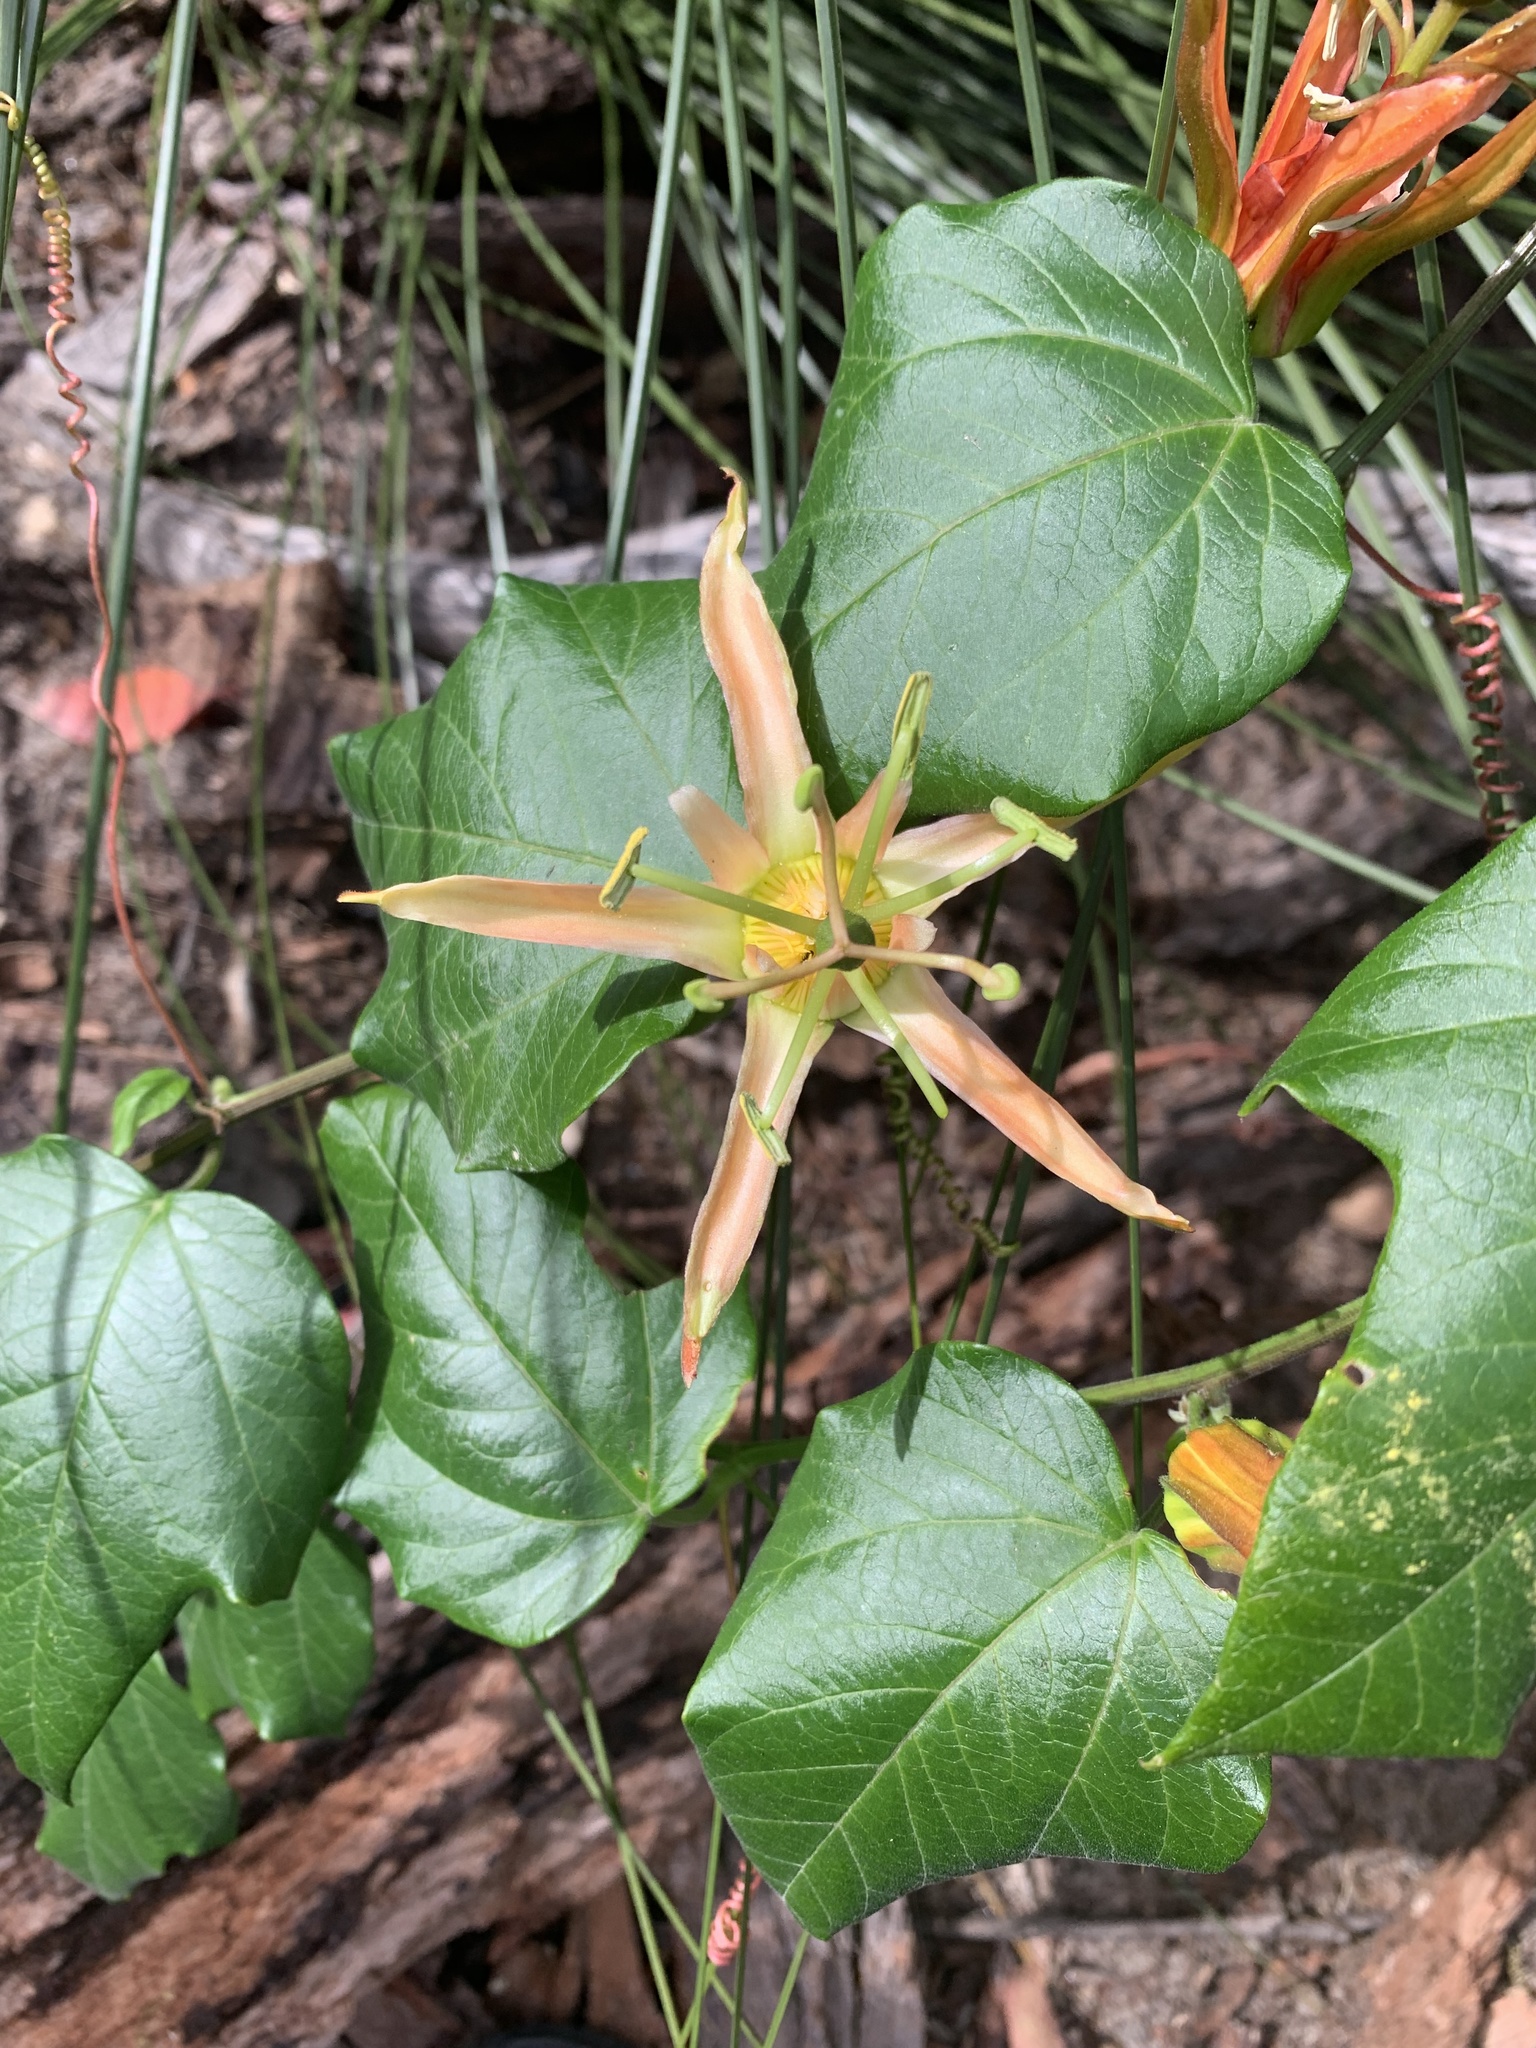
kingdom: Plantae
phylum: Tracheophyta
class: Magnoliopsida
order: Malpighiales
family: Passifloraceae
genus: Passiflora
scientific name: Passiflora herbertiana
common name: Yellow passionflower
